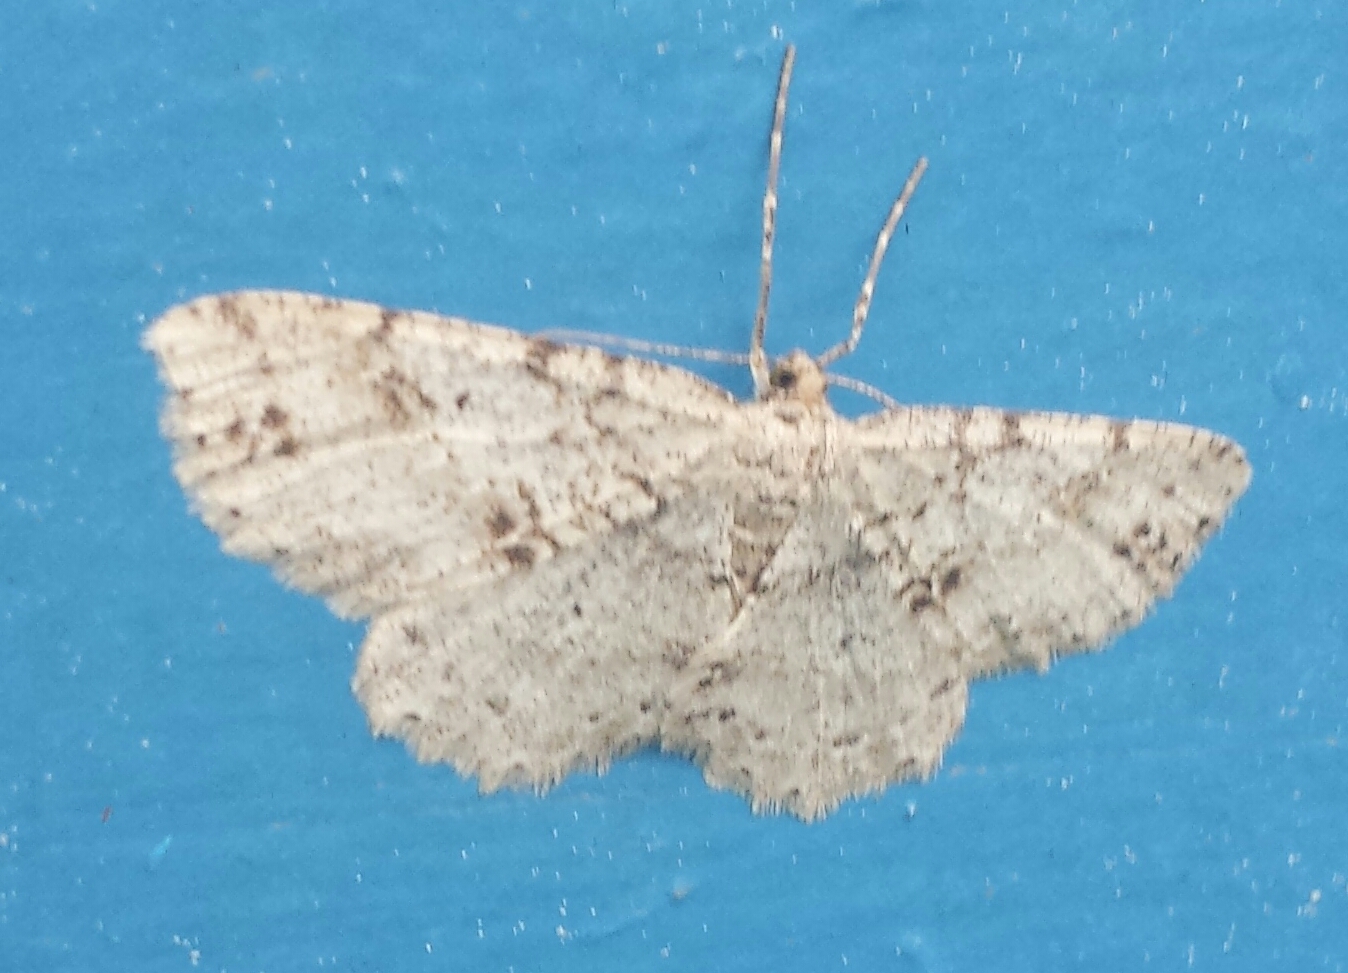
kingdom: Animalia
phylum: Arthropoda
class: Insecta
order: Lepidoptera
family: Geometridae
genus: Melanolophia
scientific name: Melanolophia signataria
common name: Signate melanolophia
